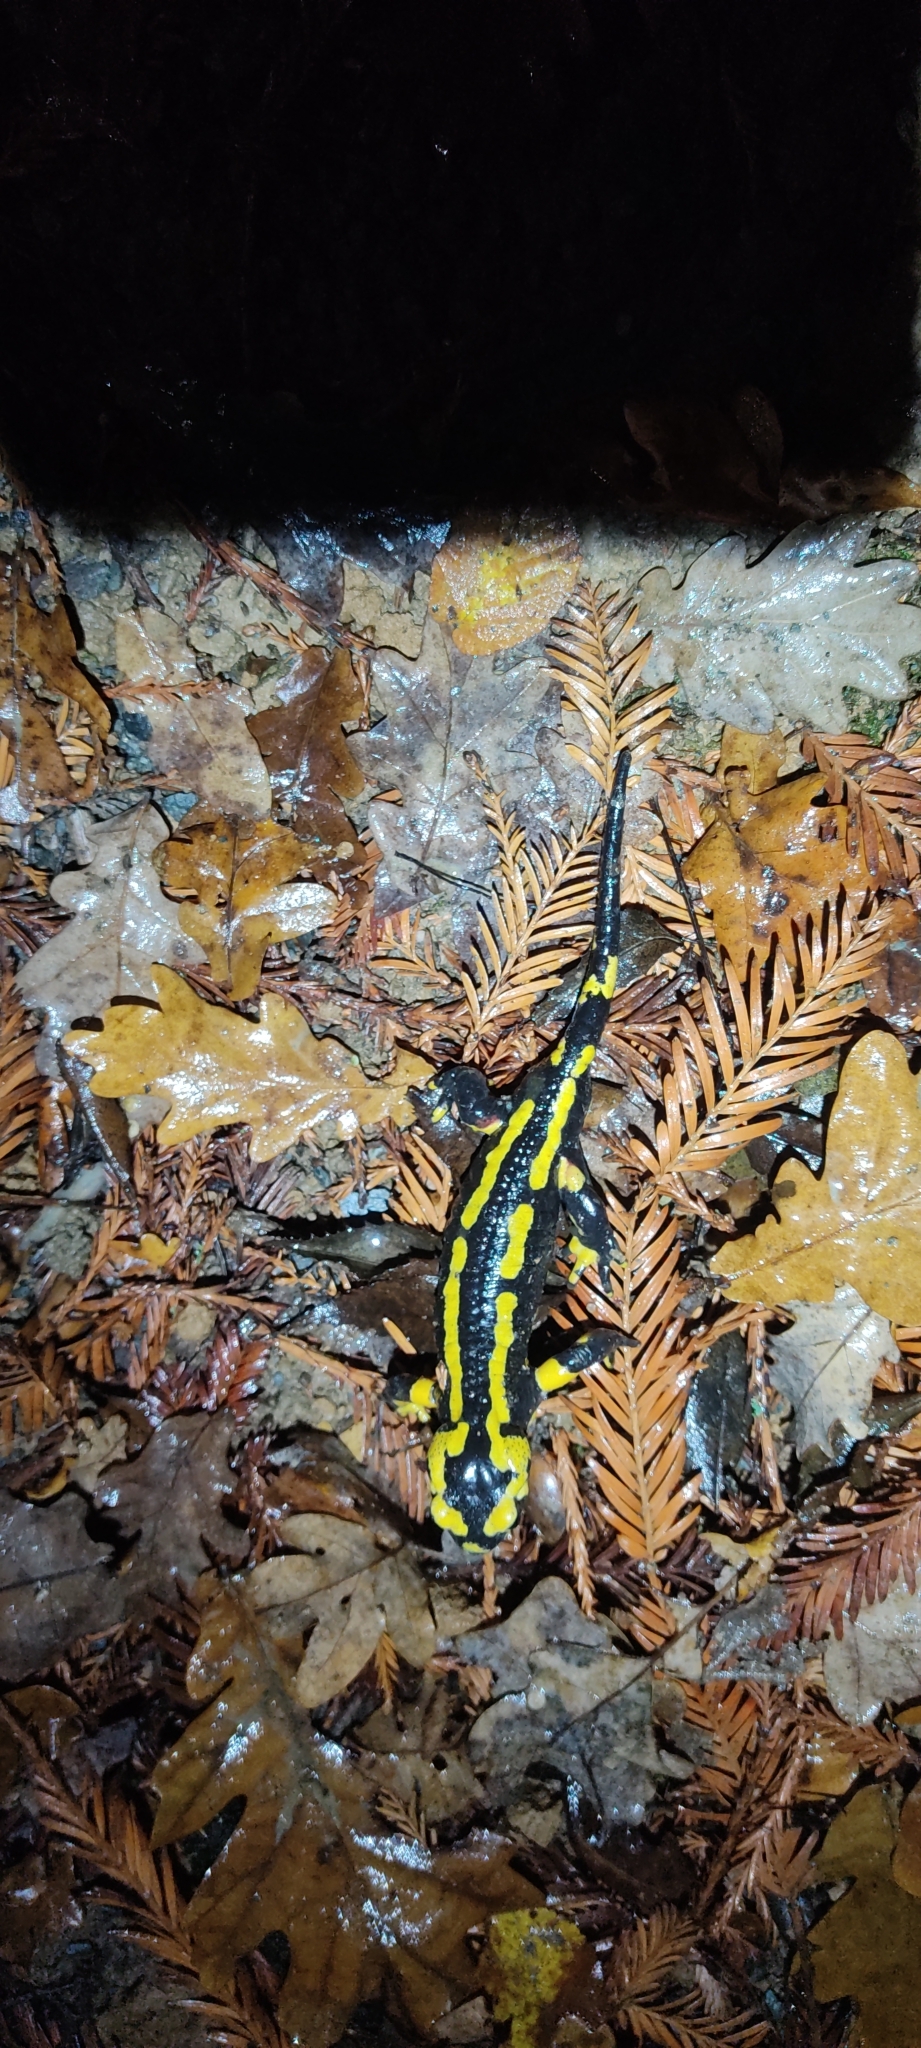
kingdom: Animalia
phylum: Chordata
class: Amphibia
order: Caudata
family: Salamandridae
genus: Salamandra
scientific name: Salamandra salamandra
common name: Fire salamander
